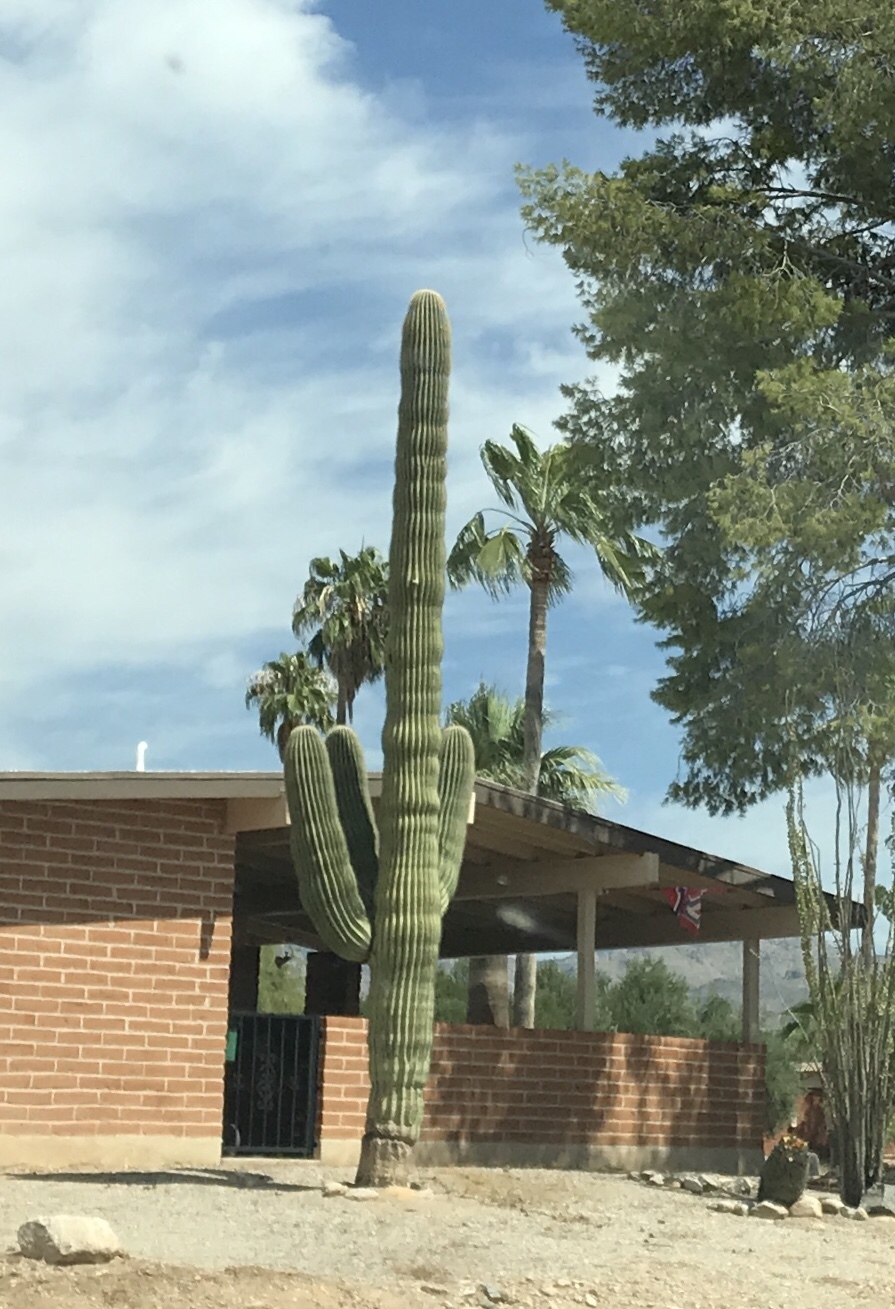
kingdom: Plantae
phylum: Tracheophyta
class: Magnoliopsida
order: Caryophyllales
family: Cactaceae
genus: Carnegiea
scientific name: Carnegiea gigantea
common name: Saguaro
